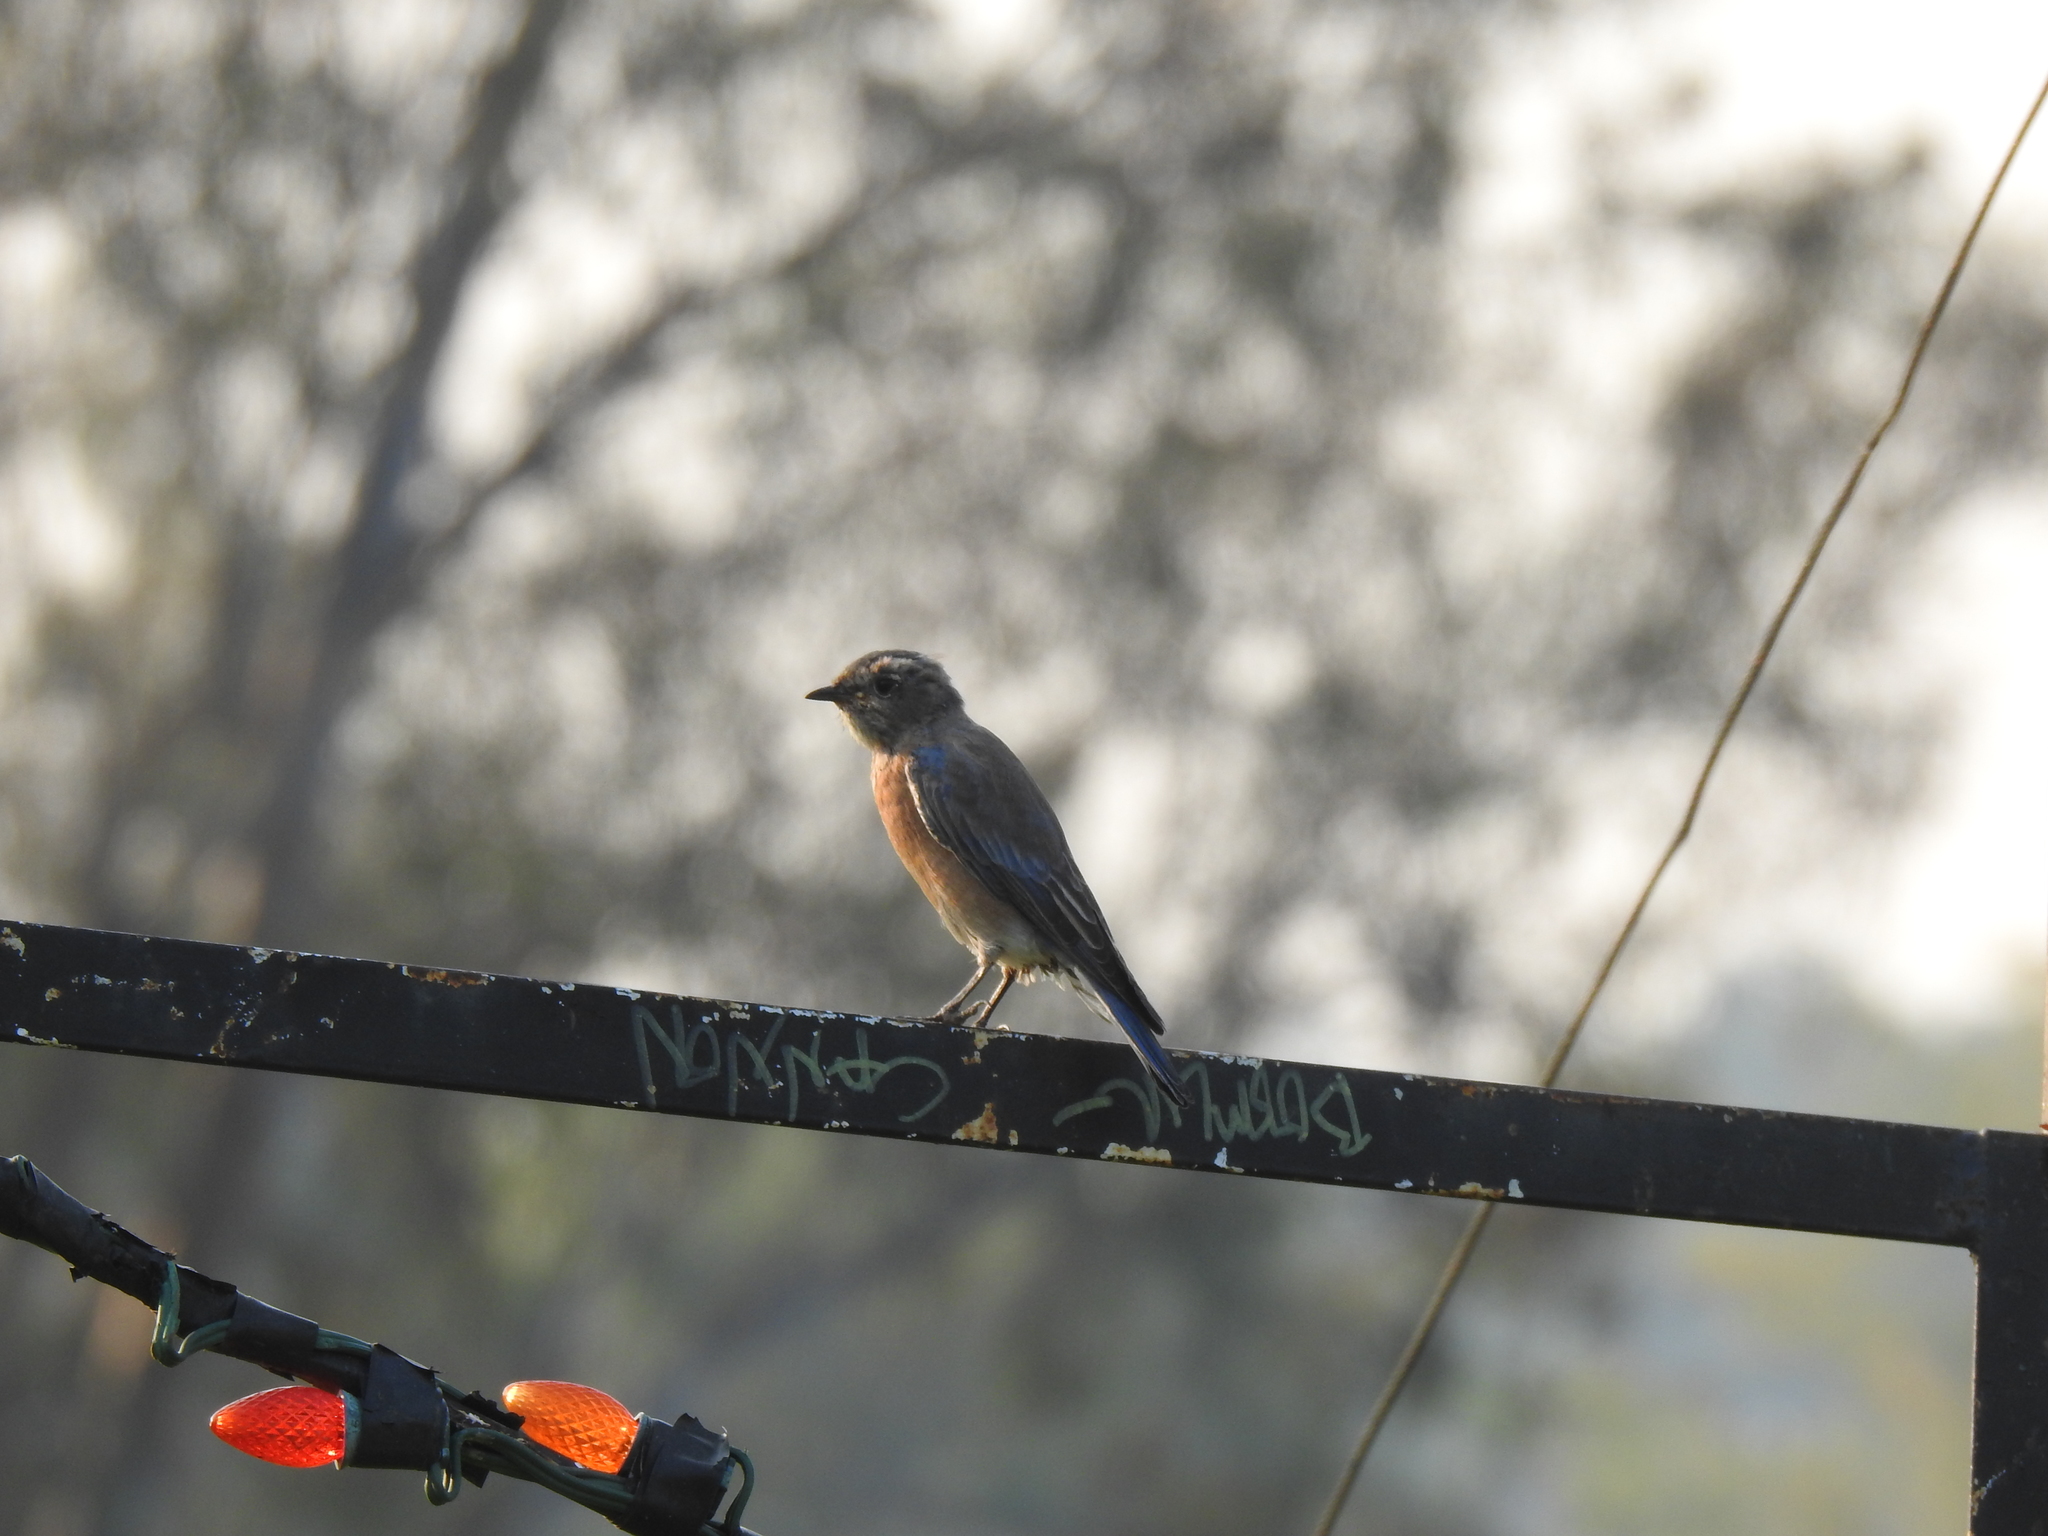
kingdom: Animalia
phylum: Chordata
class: Aves
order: Passeriformes
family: Turdidae
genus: Sialia
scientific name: Sialia mexicana
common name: Western bluebird
